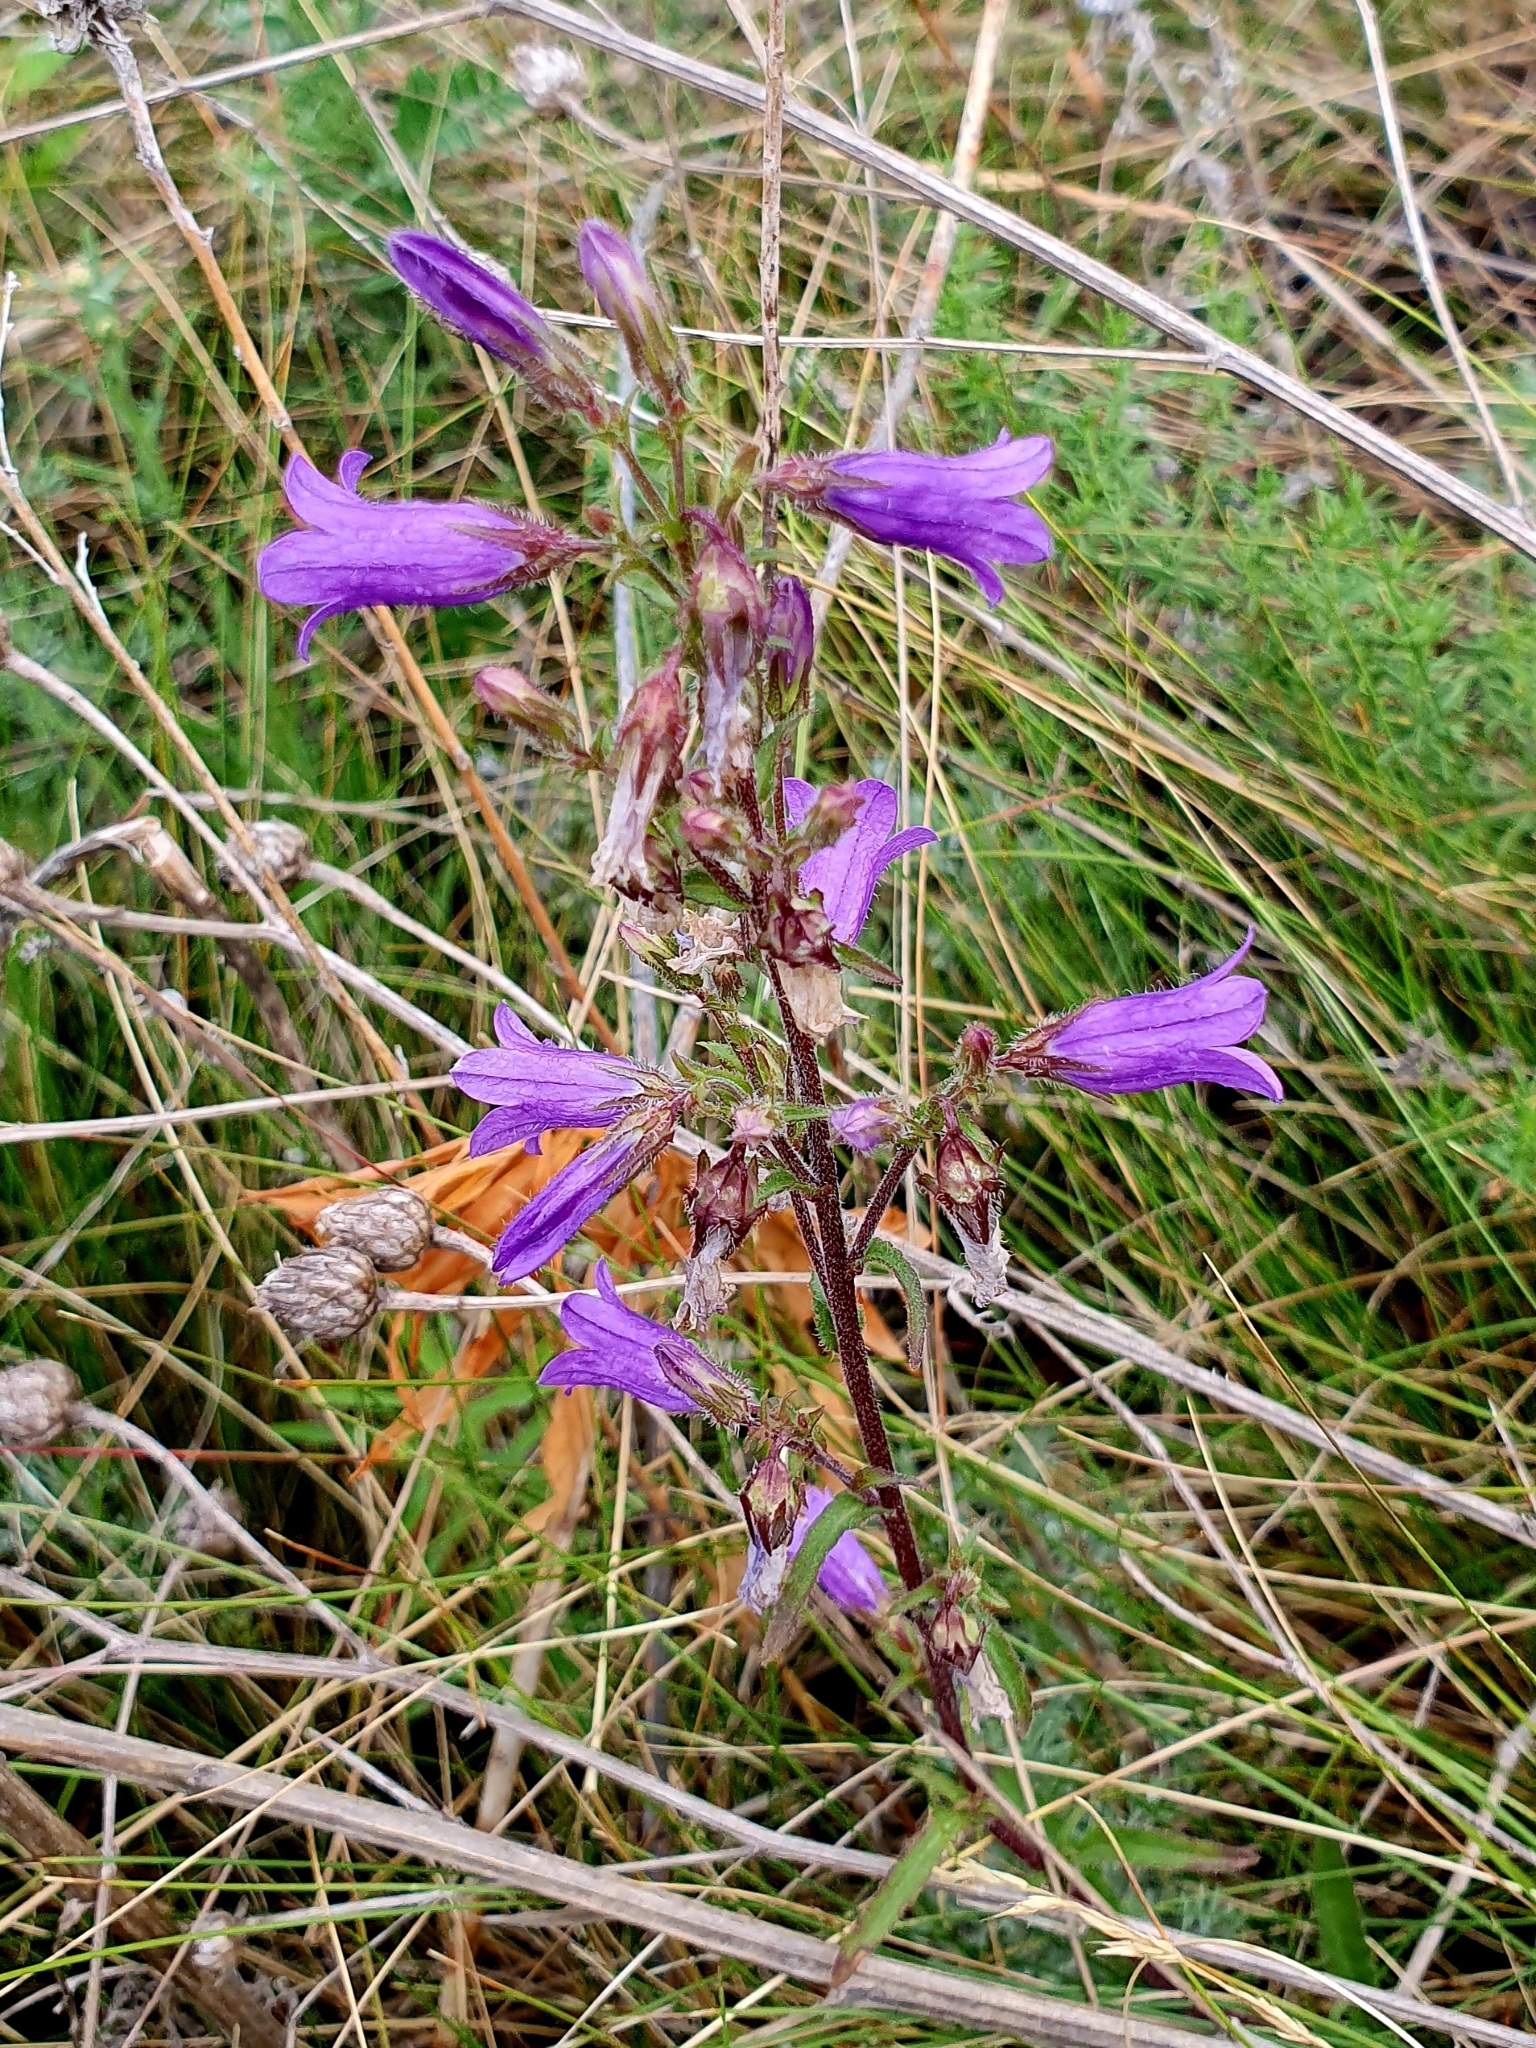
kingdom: Plantae
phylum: Tracheophyta
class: Magnoliopsida
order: Asterales
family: Campanulaceae
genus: Campanula
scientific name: Campanula sibirica
